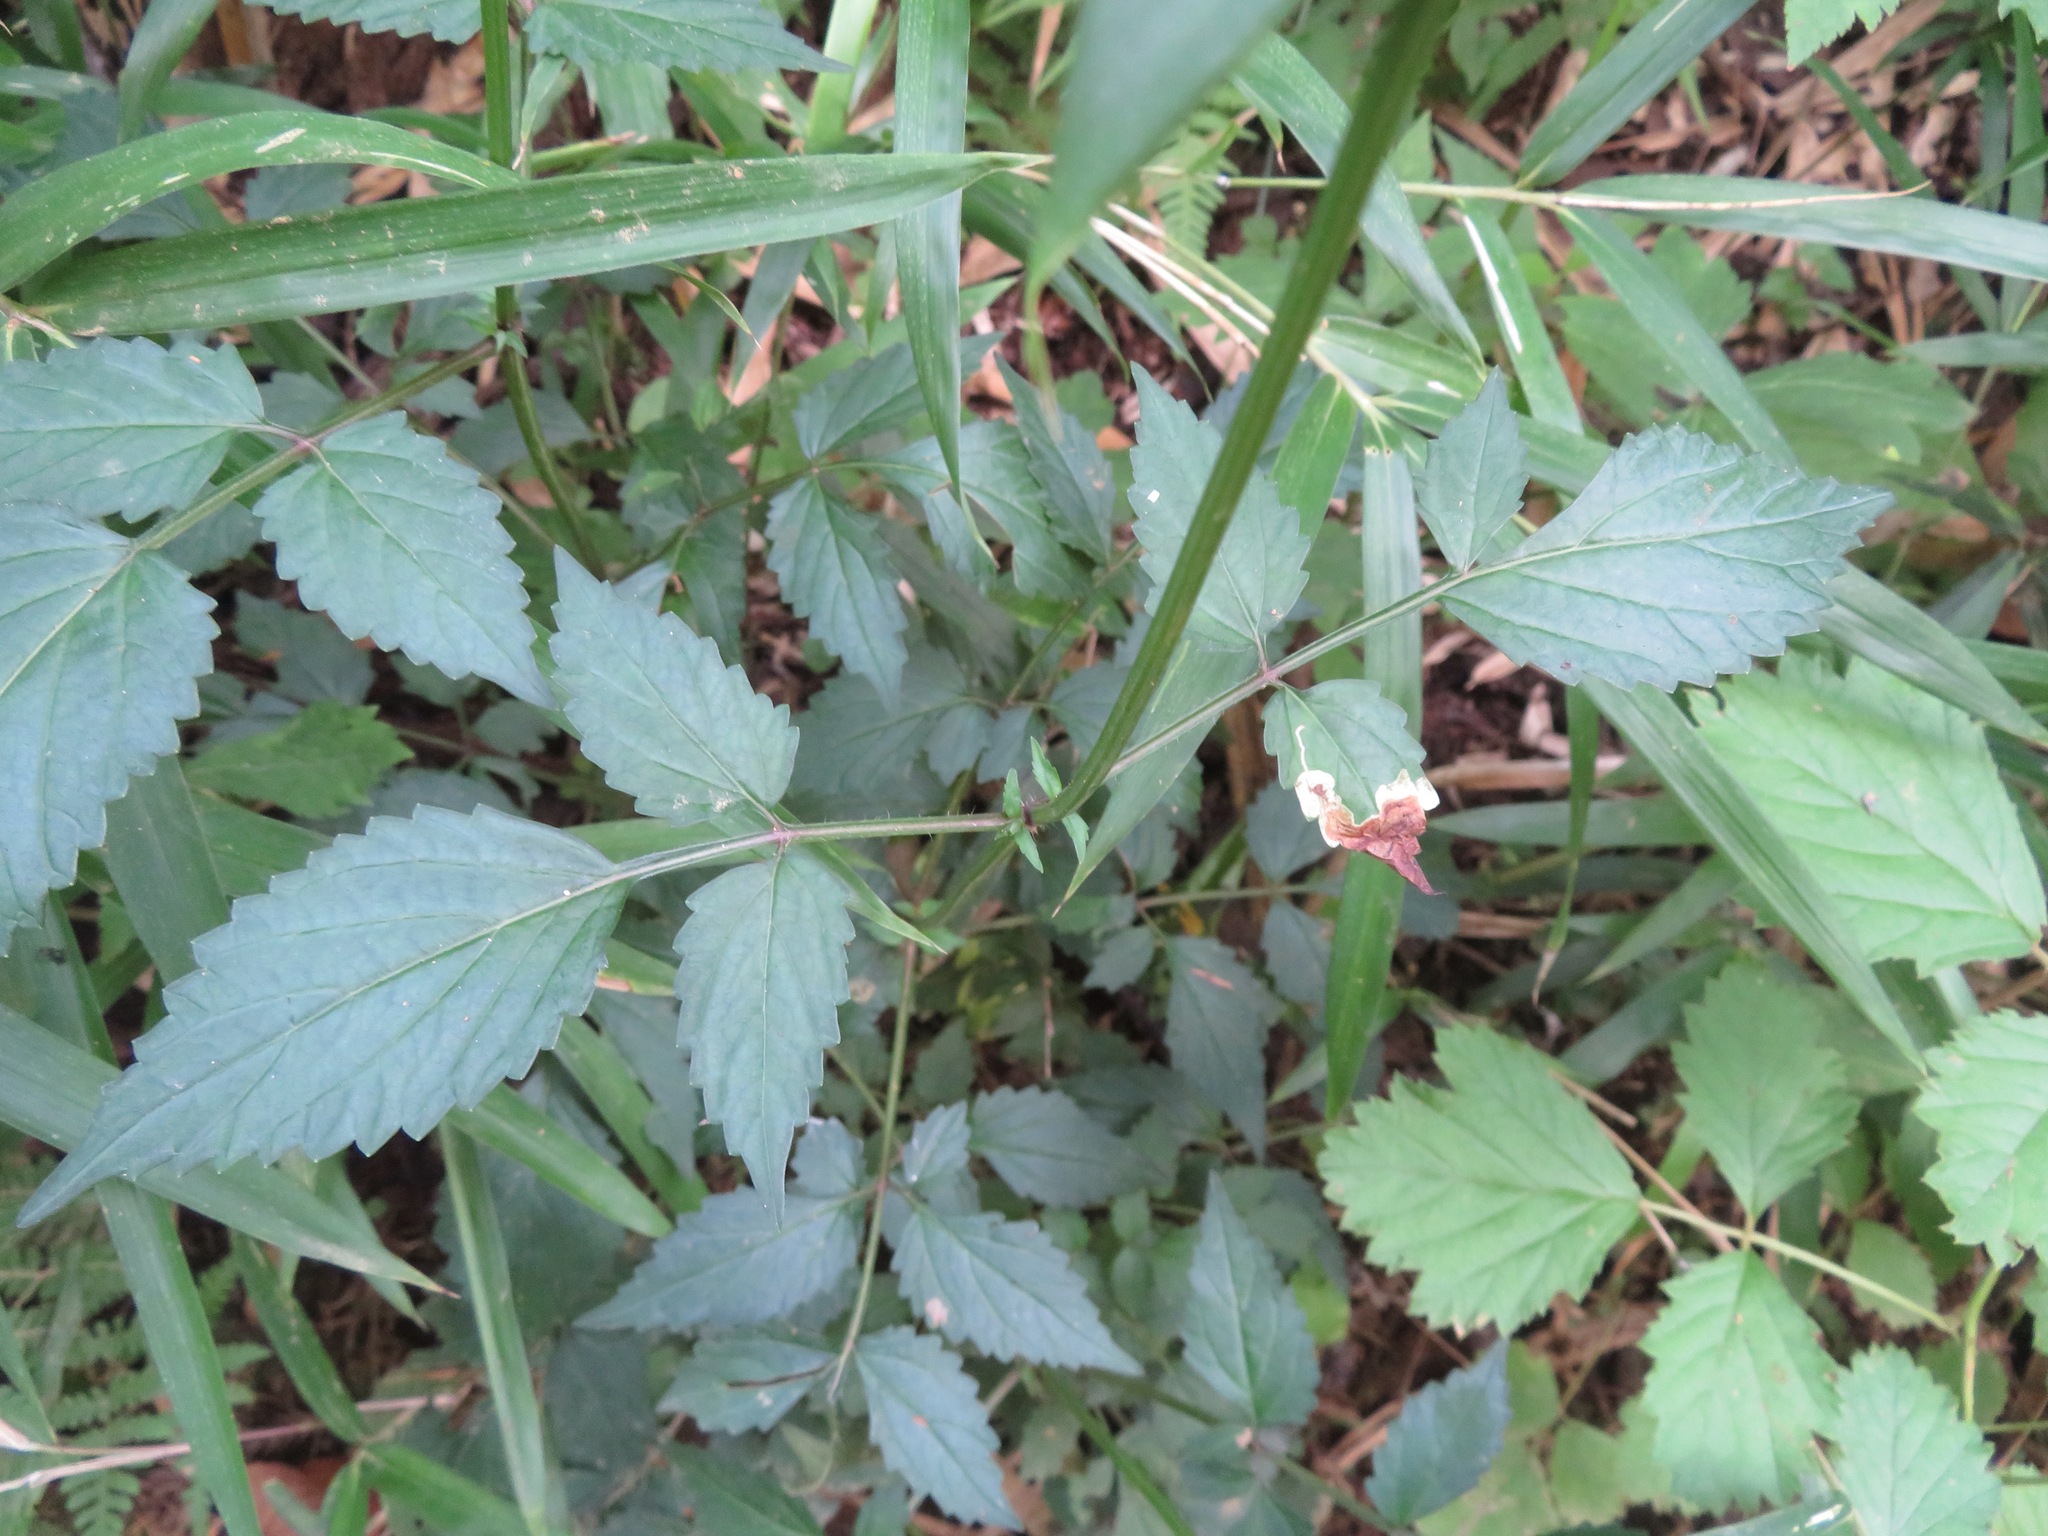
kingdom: Plantae
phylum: Tracheophyta
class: Magnoliopsida
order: Lamiales
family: Lamiaceae
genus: Salvia
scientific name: Salvia japonica
